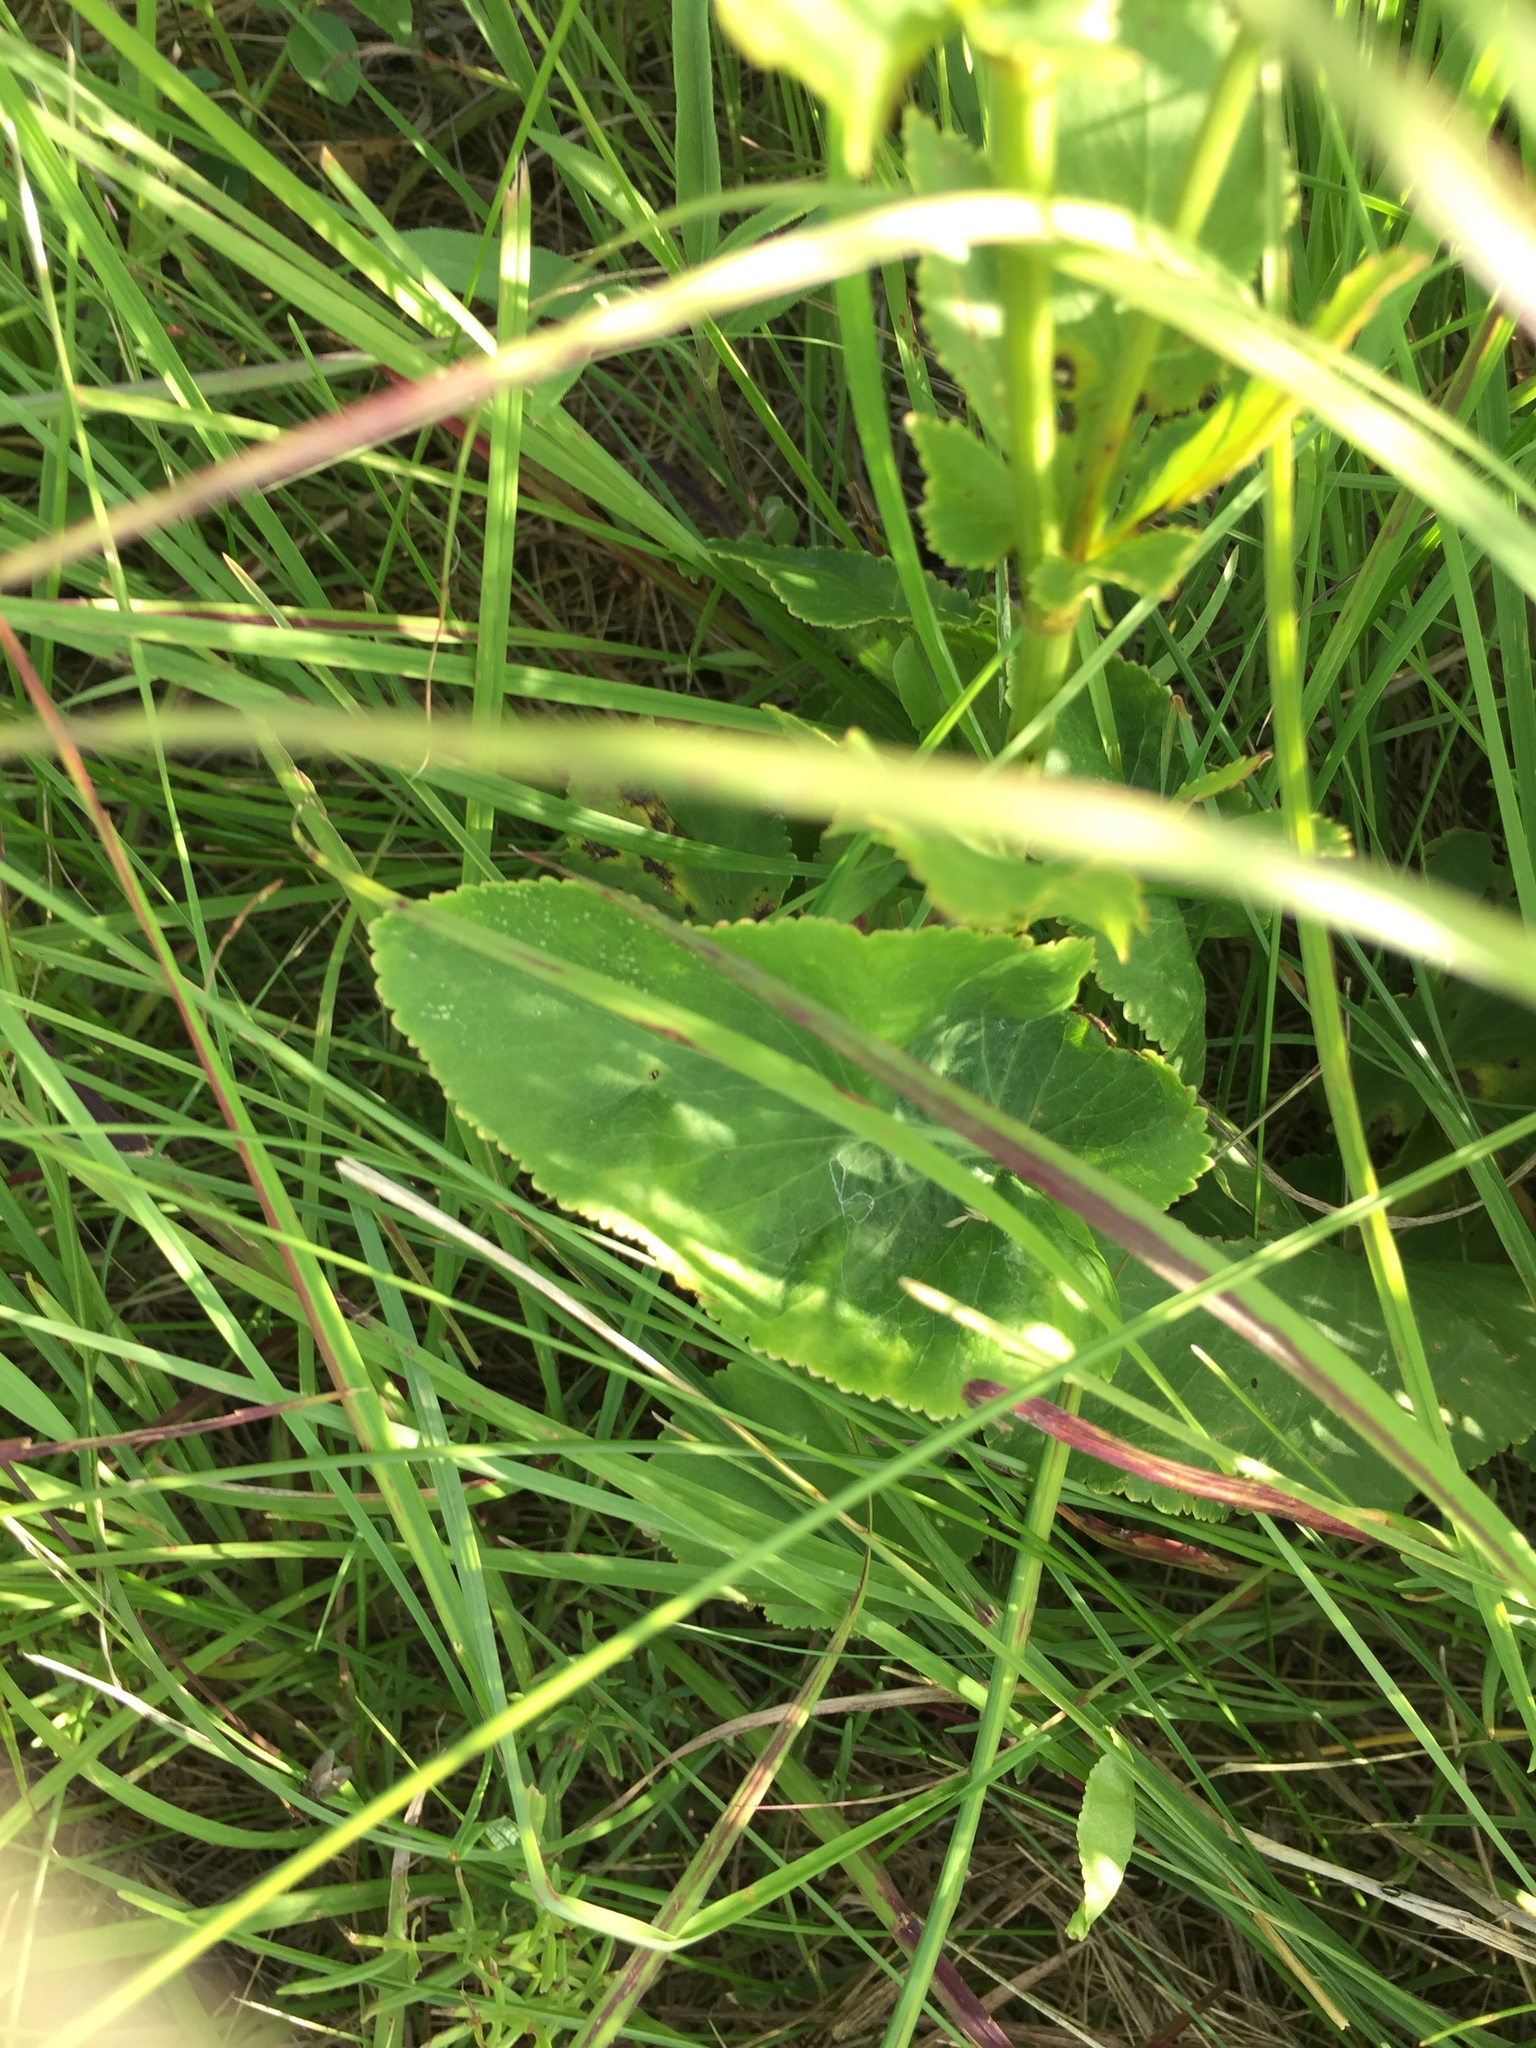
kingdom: Plantae
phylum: Tracheophyta
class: Magnoliopsida
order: Apiales
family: Apiaceae
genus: Zizia
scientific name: Zizia aptera
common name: Heart-leaved alexanders
